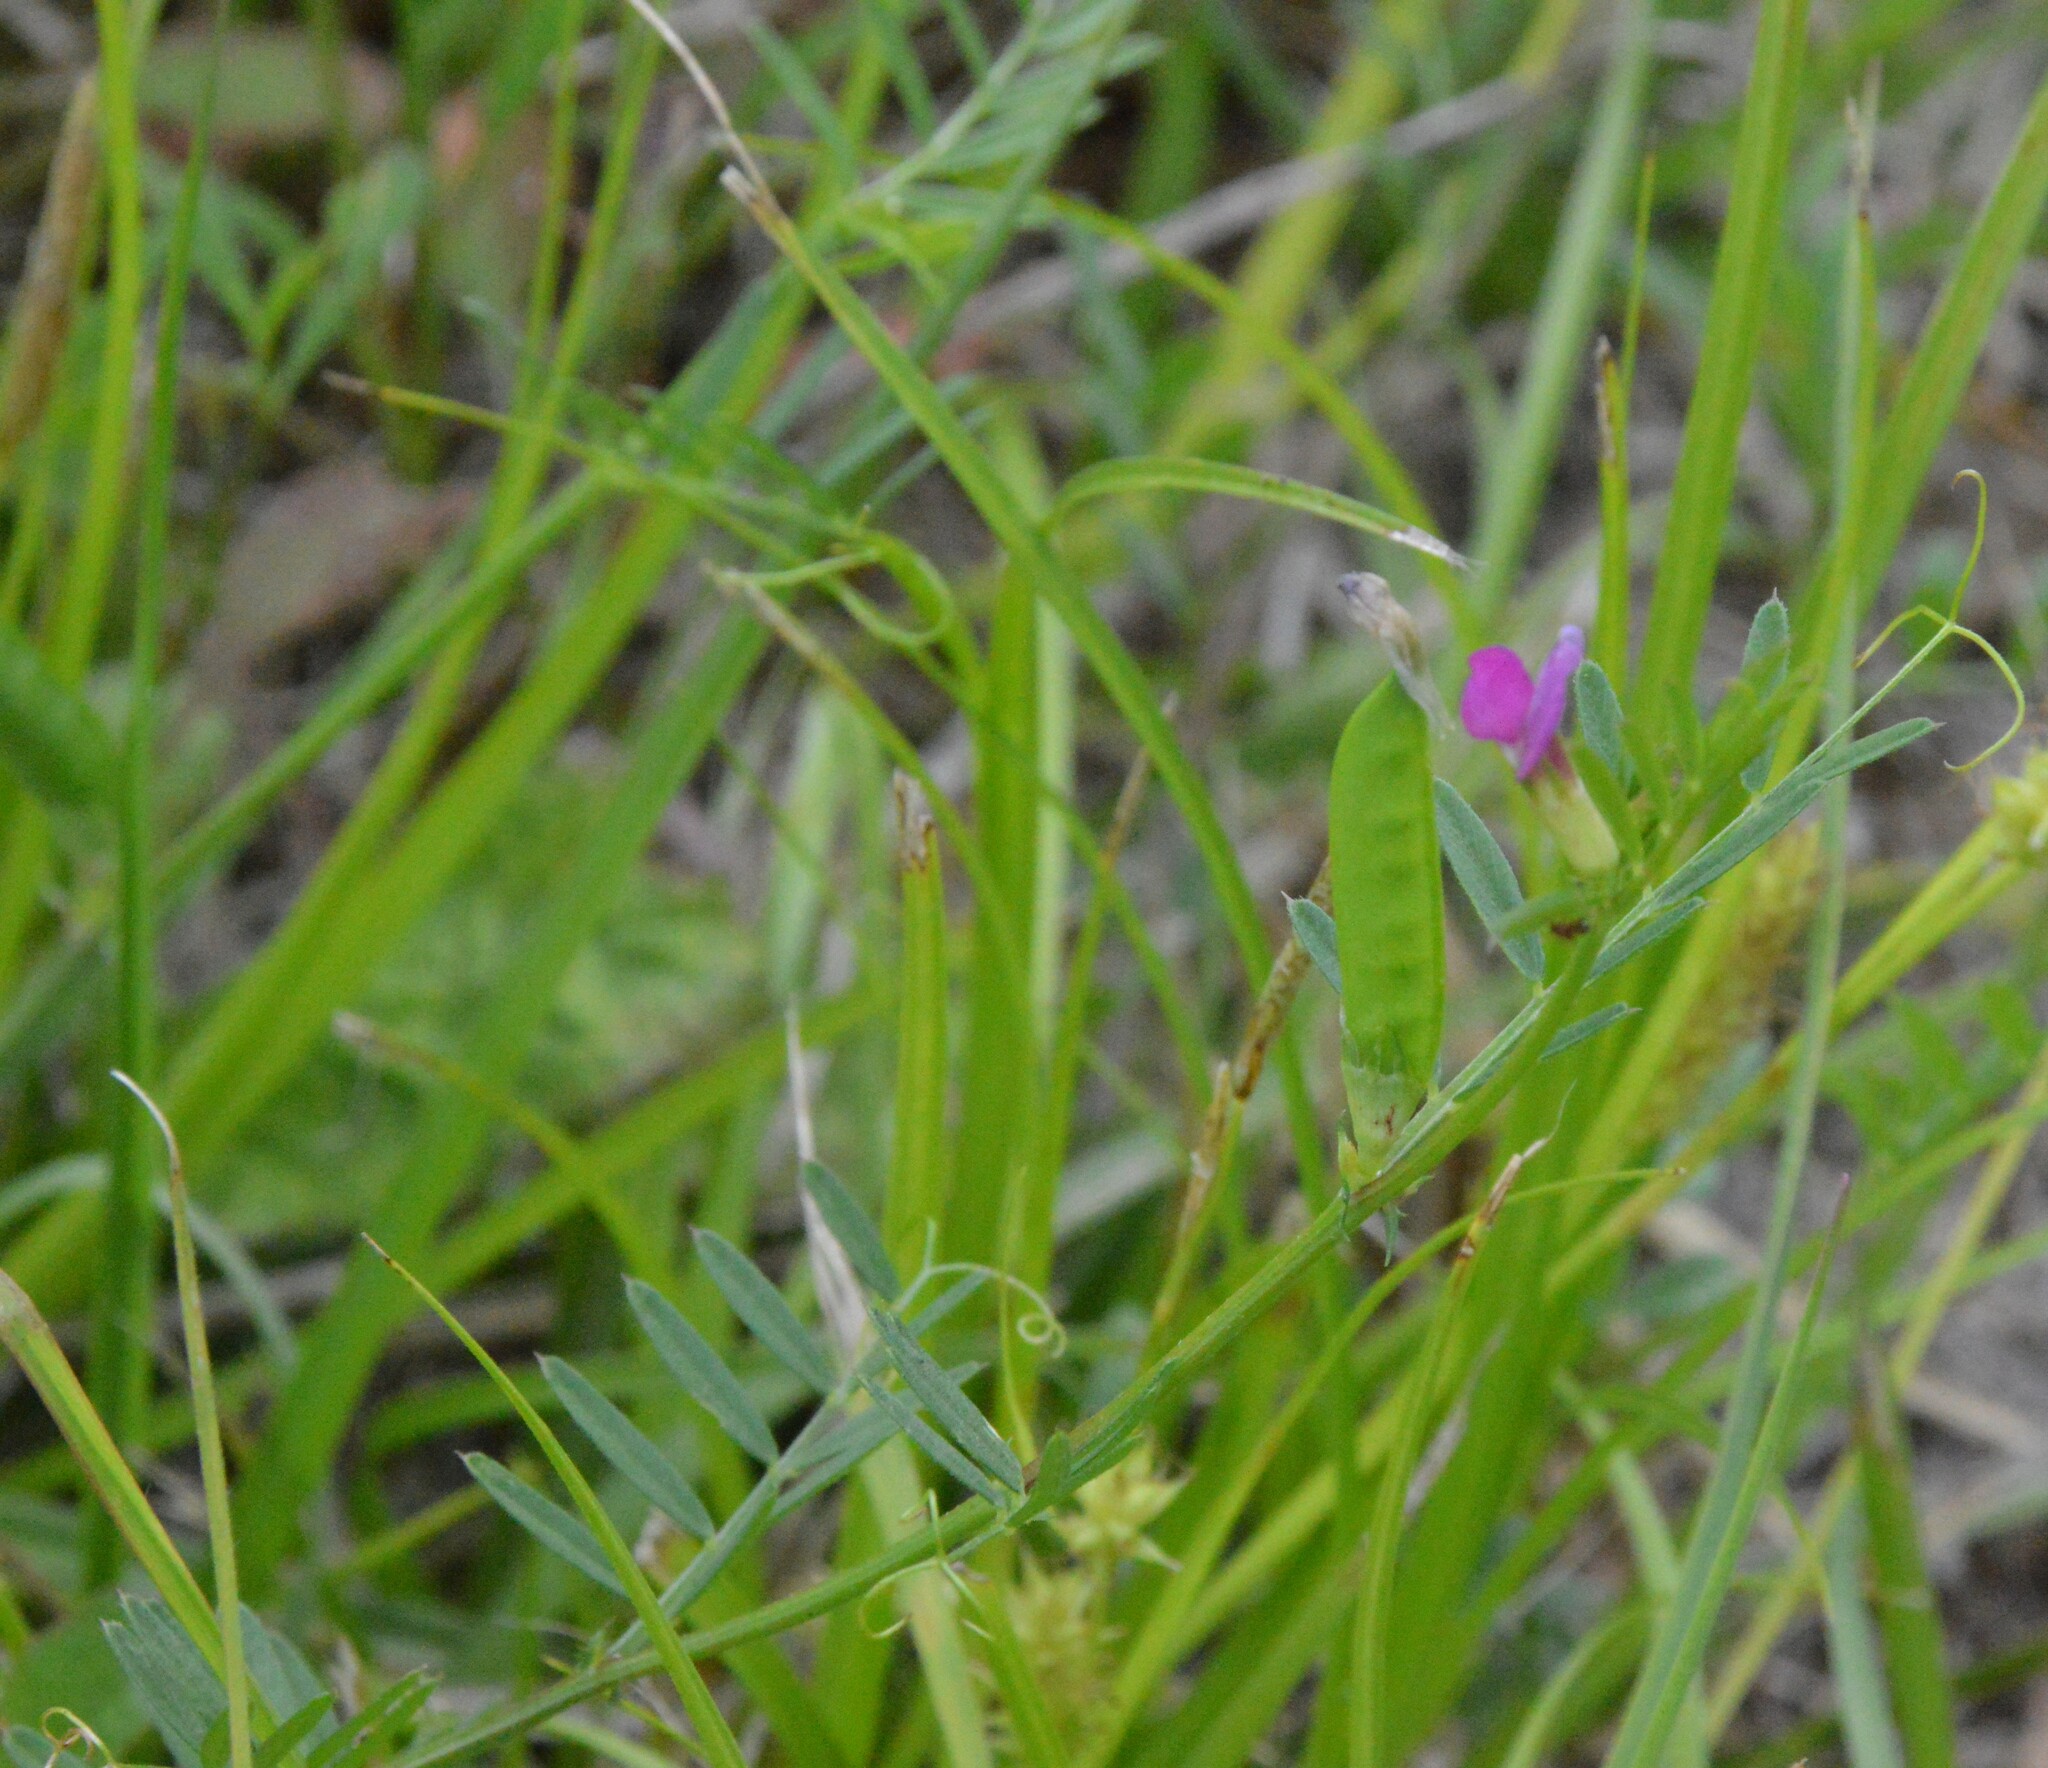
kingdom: Plantae
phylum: Tracheophyta
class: Magnoliopsida
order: Fabales
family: Fabaceae
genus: Vicia
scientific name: Vicia sativa
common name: Garden vetch
